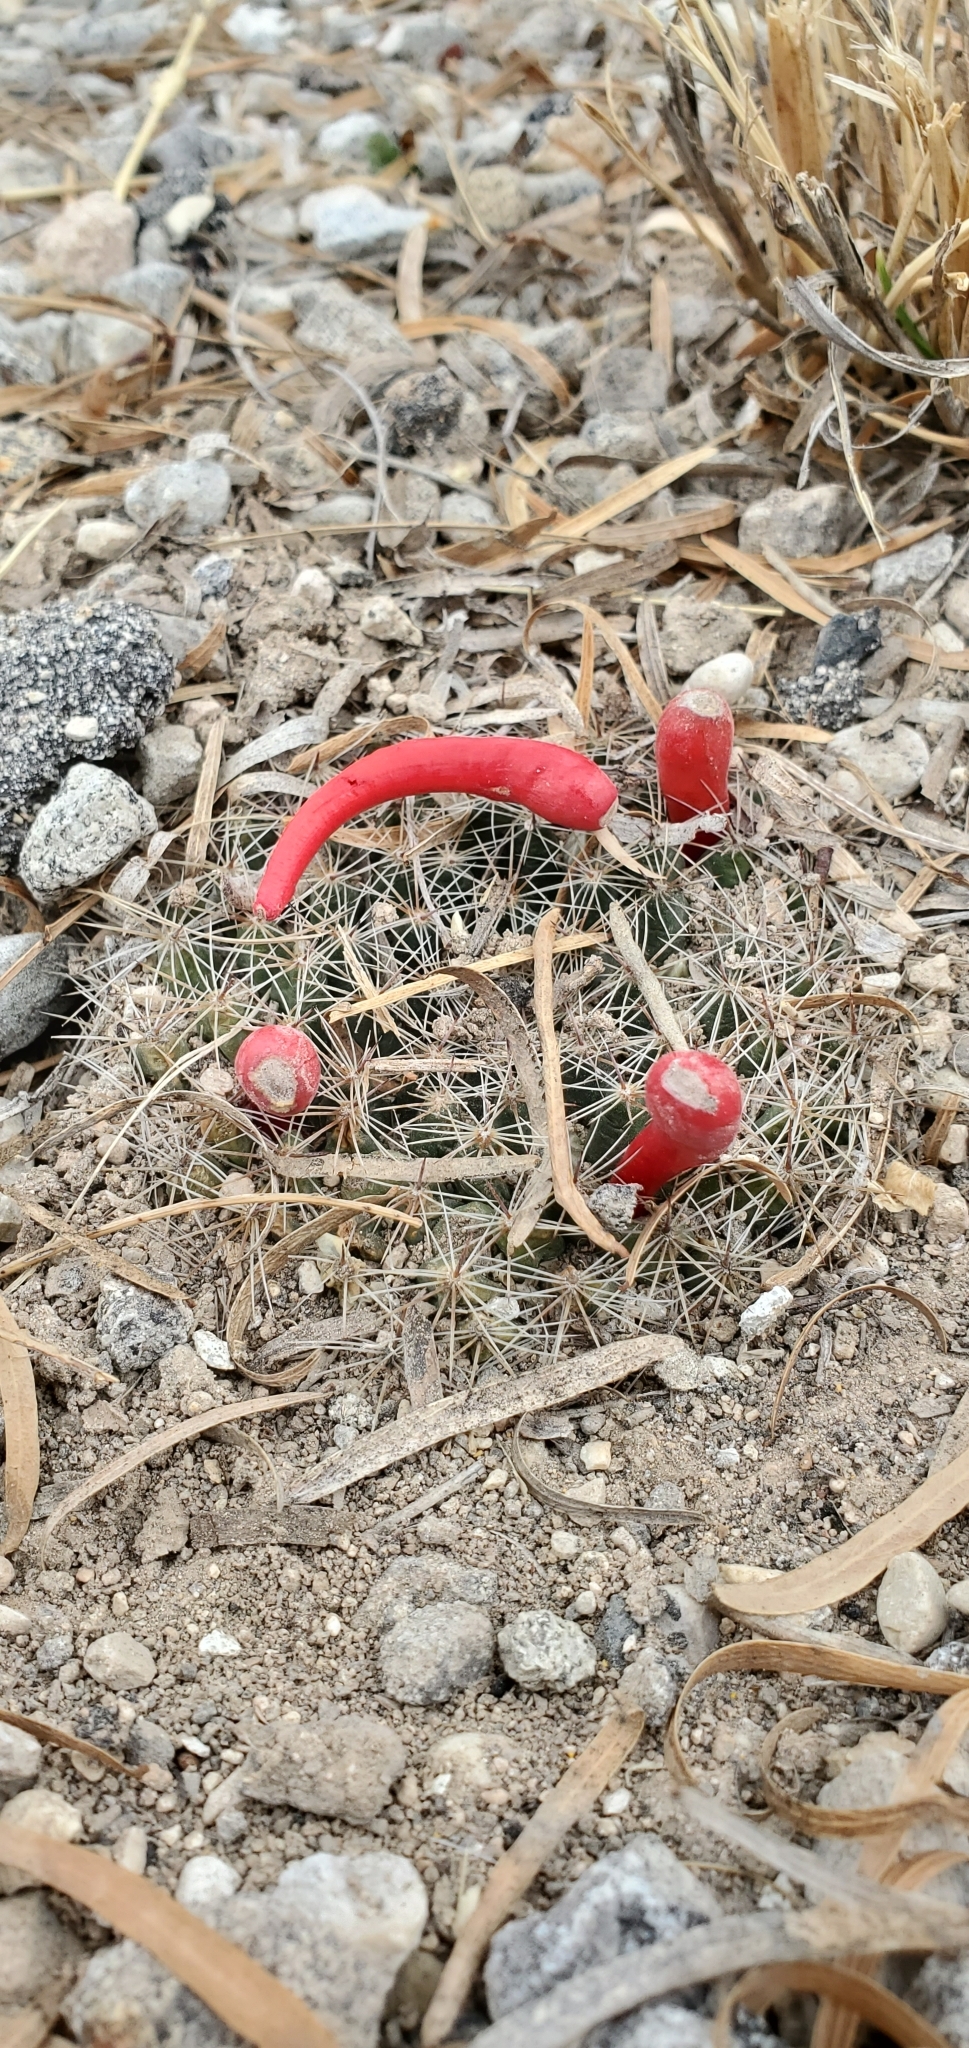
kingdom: Plantae
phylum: Tracheophyta
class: Magnoliopsida
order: Caryophyllales
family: Cactaceae
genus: Mammillaria
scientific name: Mammillaria heyderi
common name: Little nipple cactus
